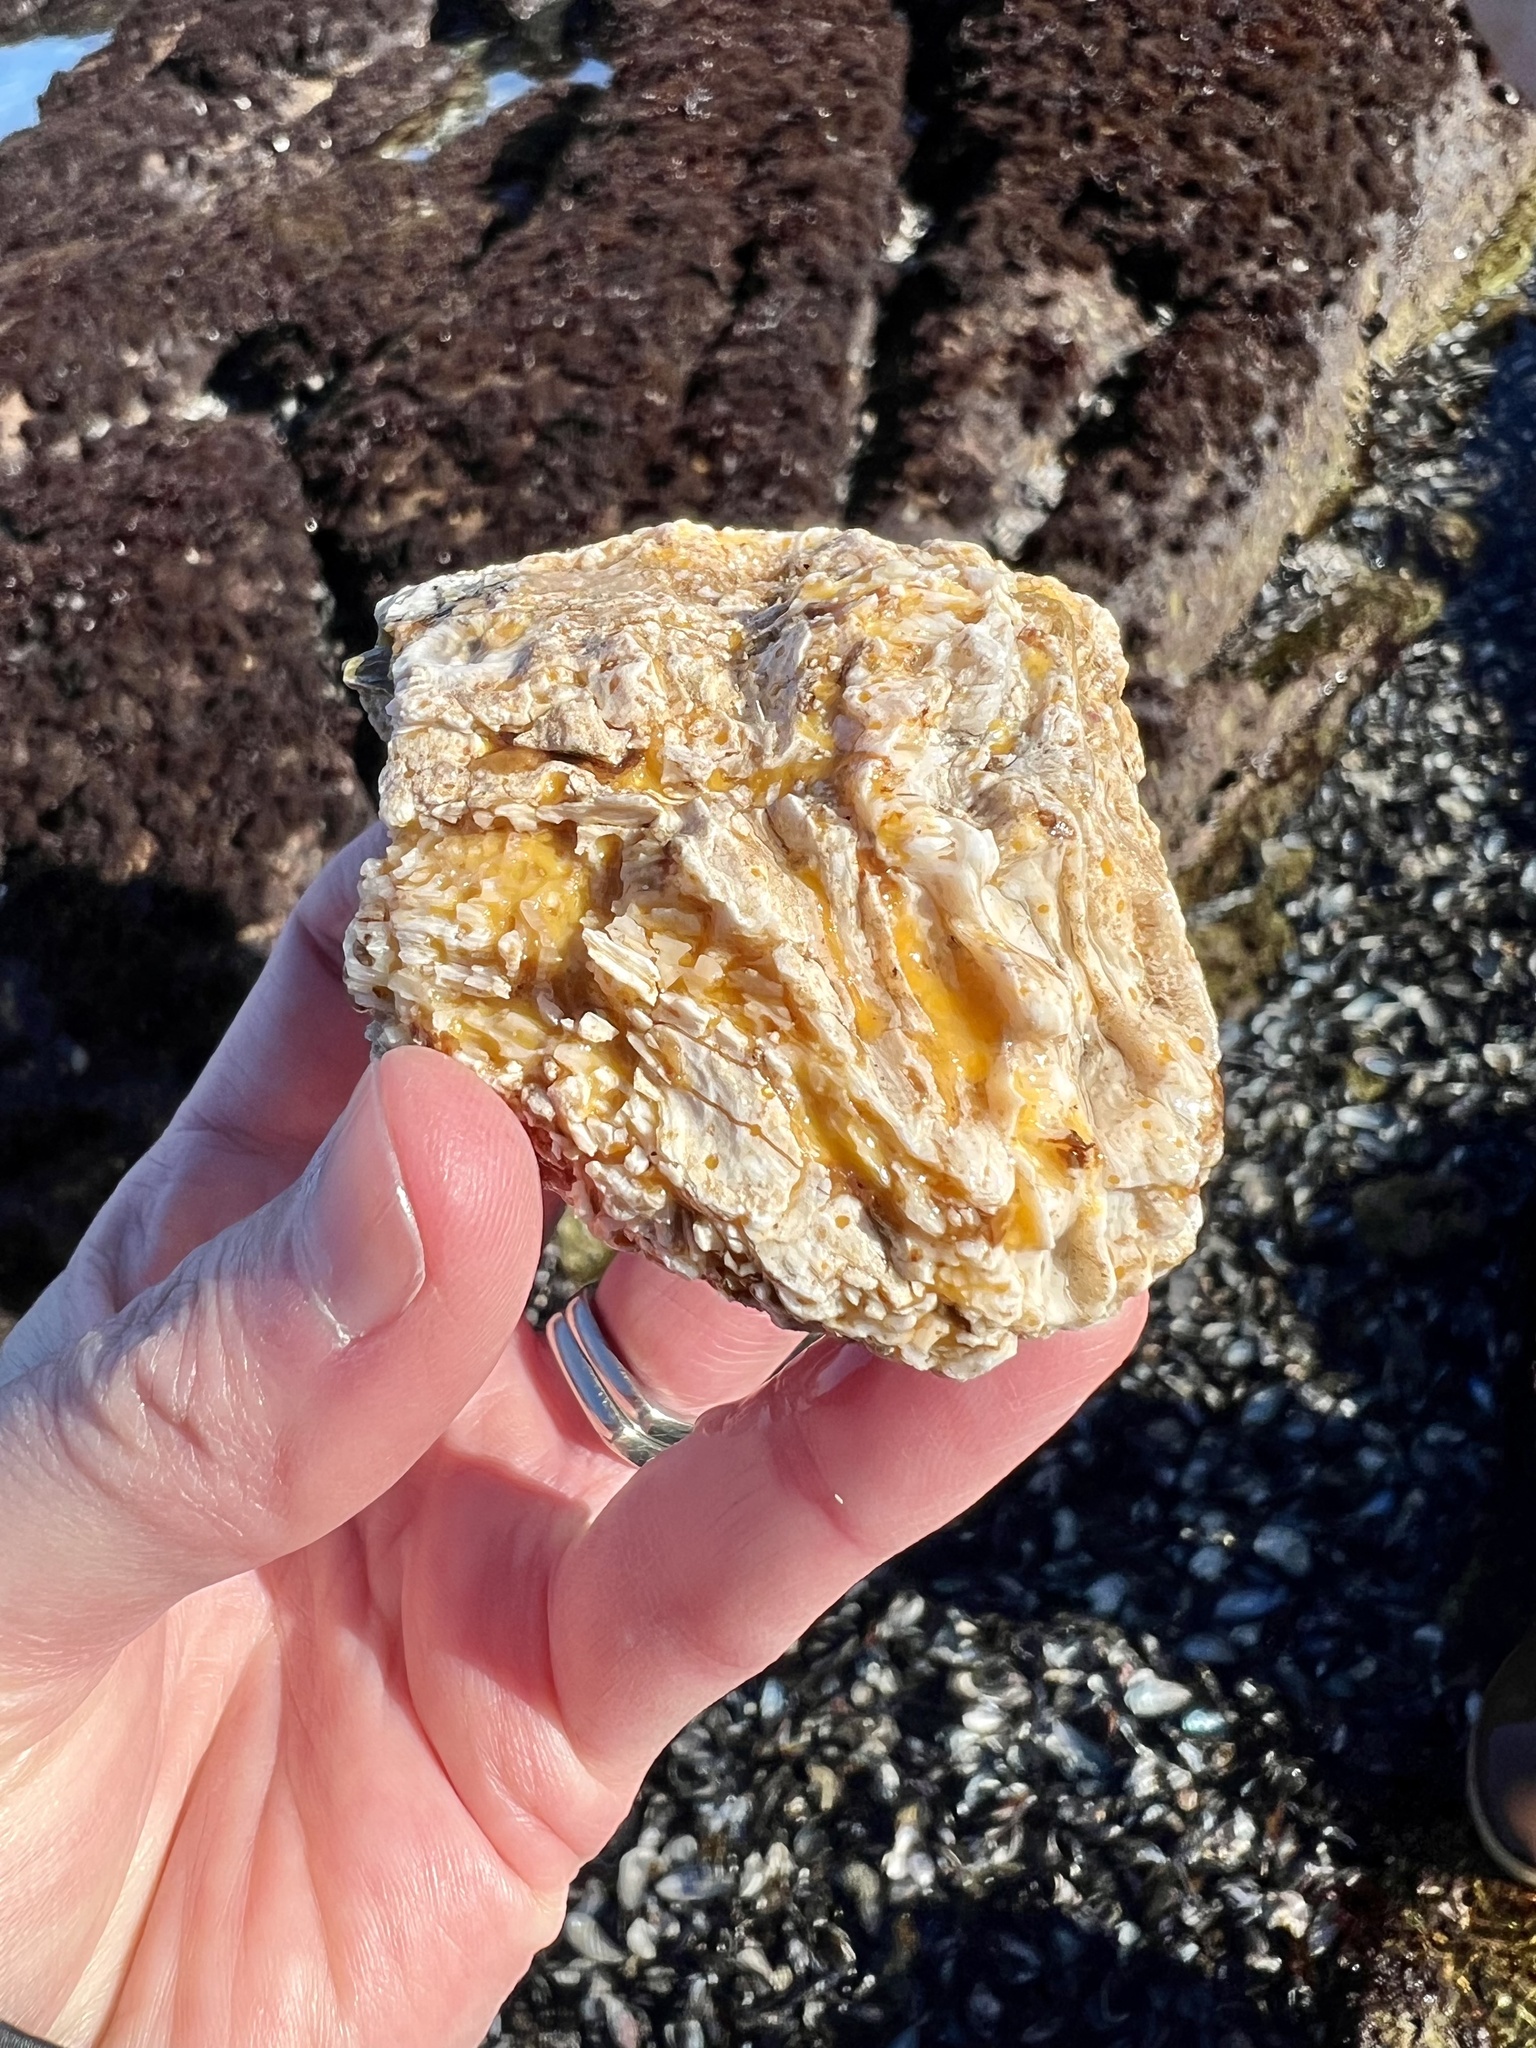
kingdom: Animalia
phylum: Porifera
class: Demospongiae
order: Clionaida
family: Clionaidae
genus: Cliona
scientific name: Cliona californiana
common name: California boring horny sponge
